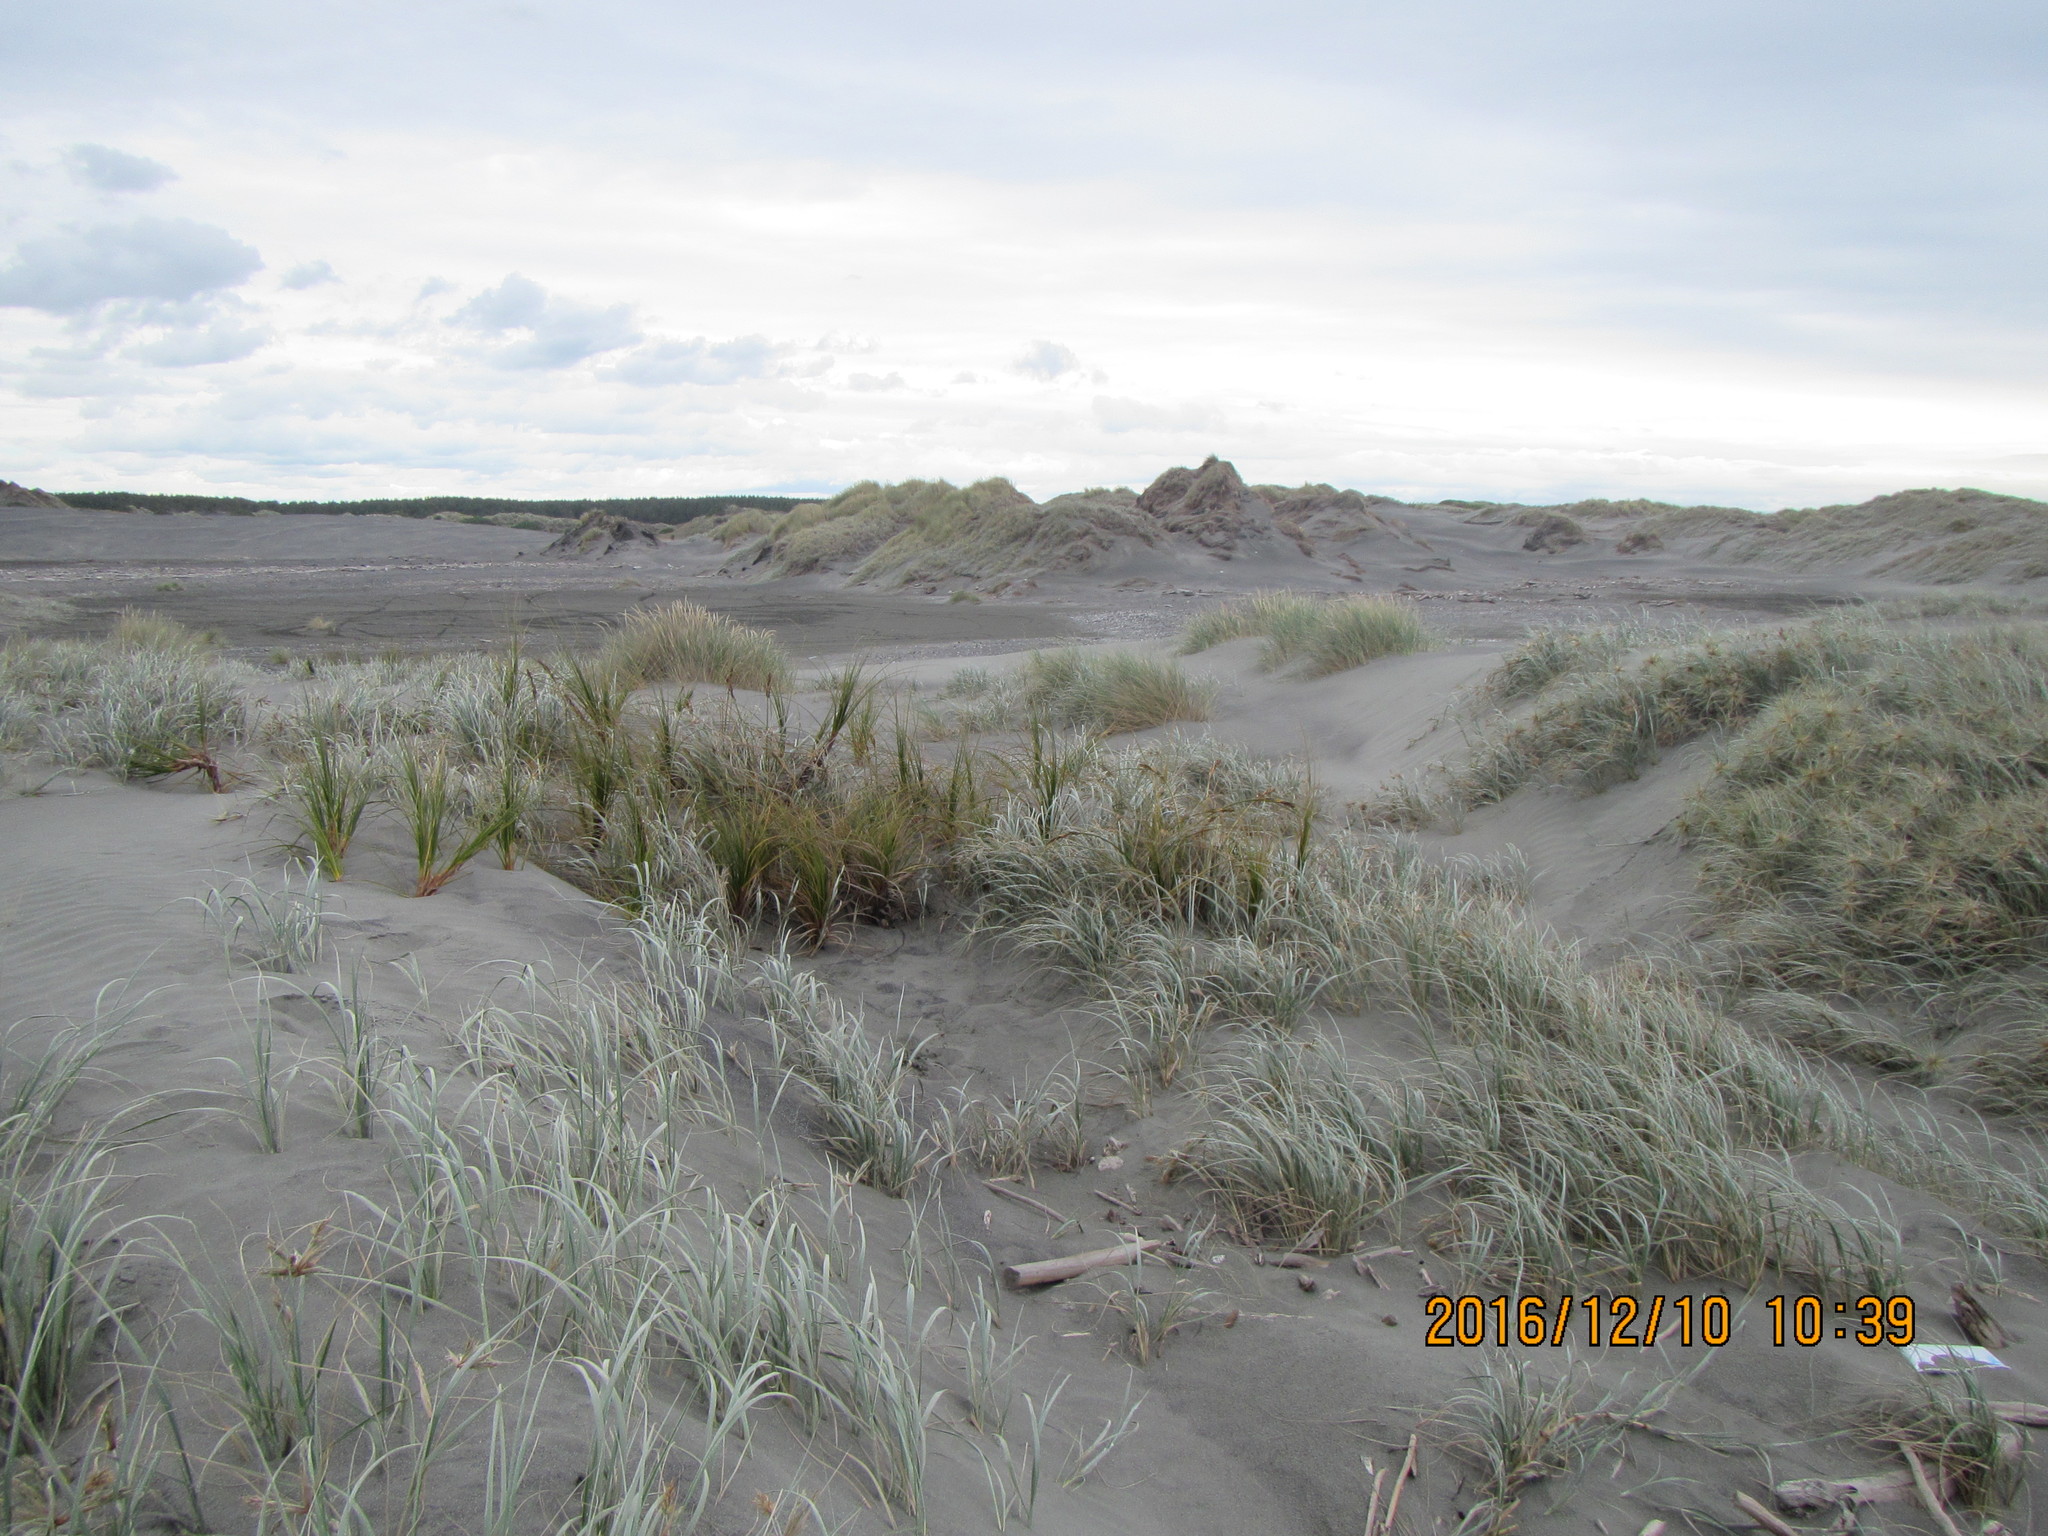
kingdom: Plantae
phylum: Tracheophyta
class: Liliopsida
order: Poales
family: Cyperaceae
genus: Ficinia
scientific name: Ficinia spiralis
